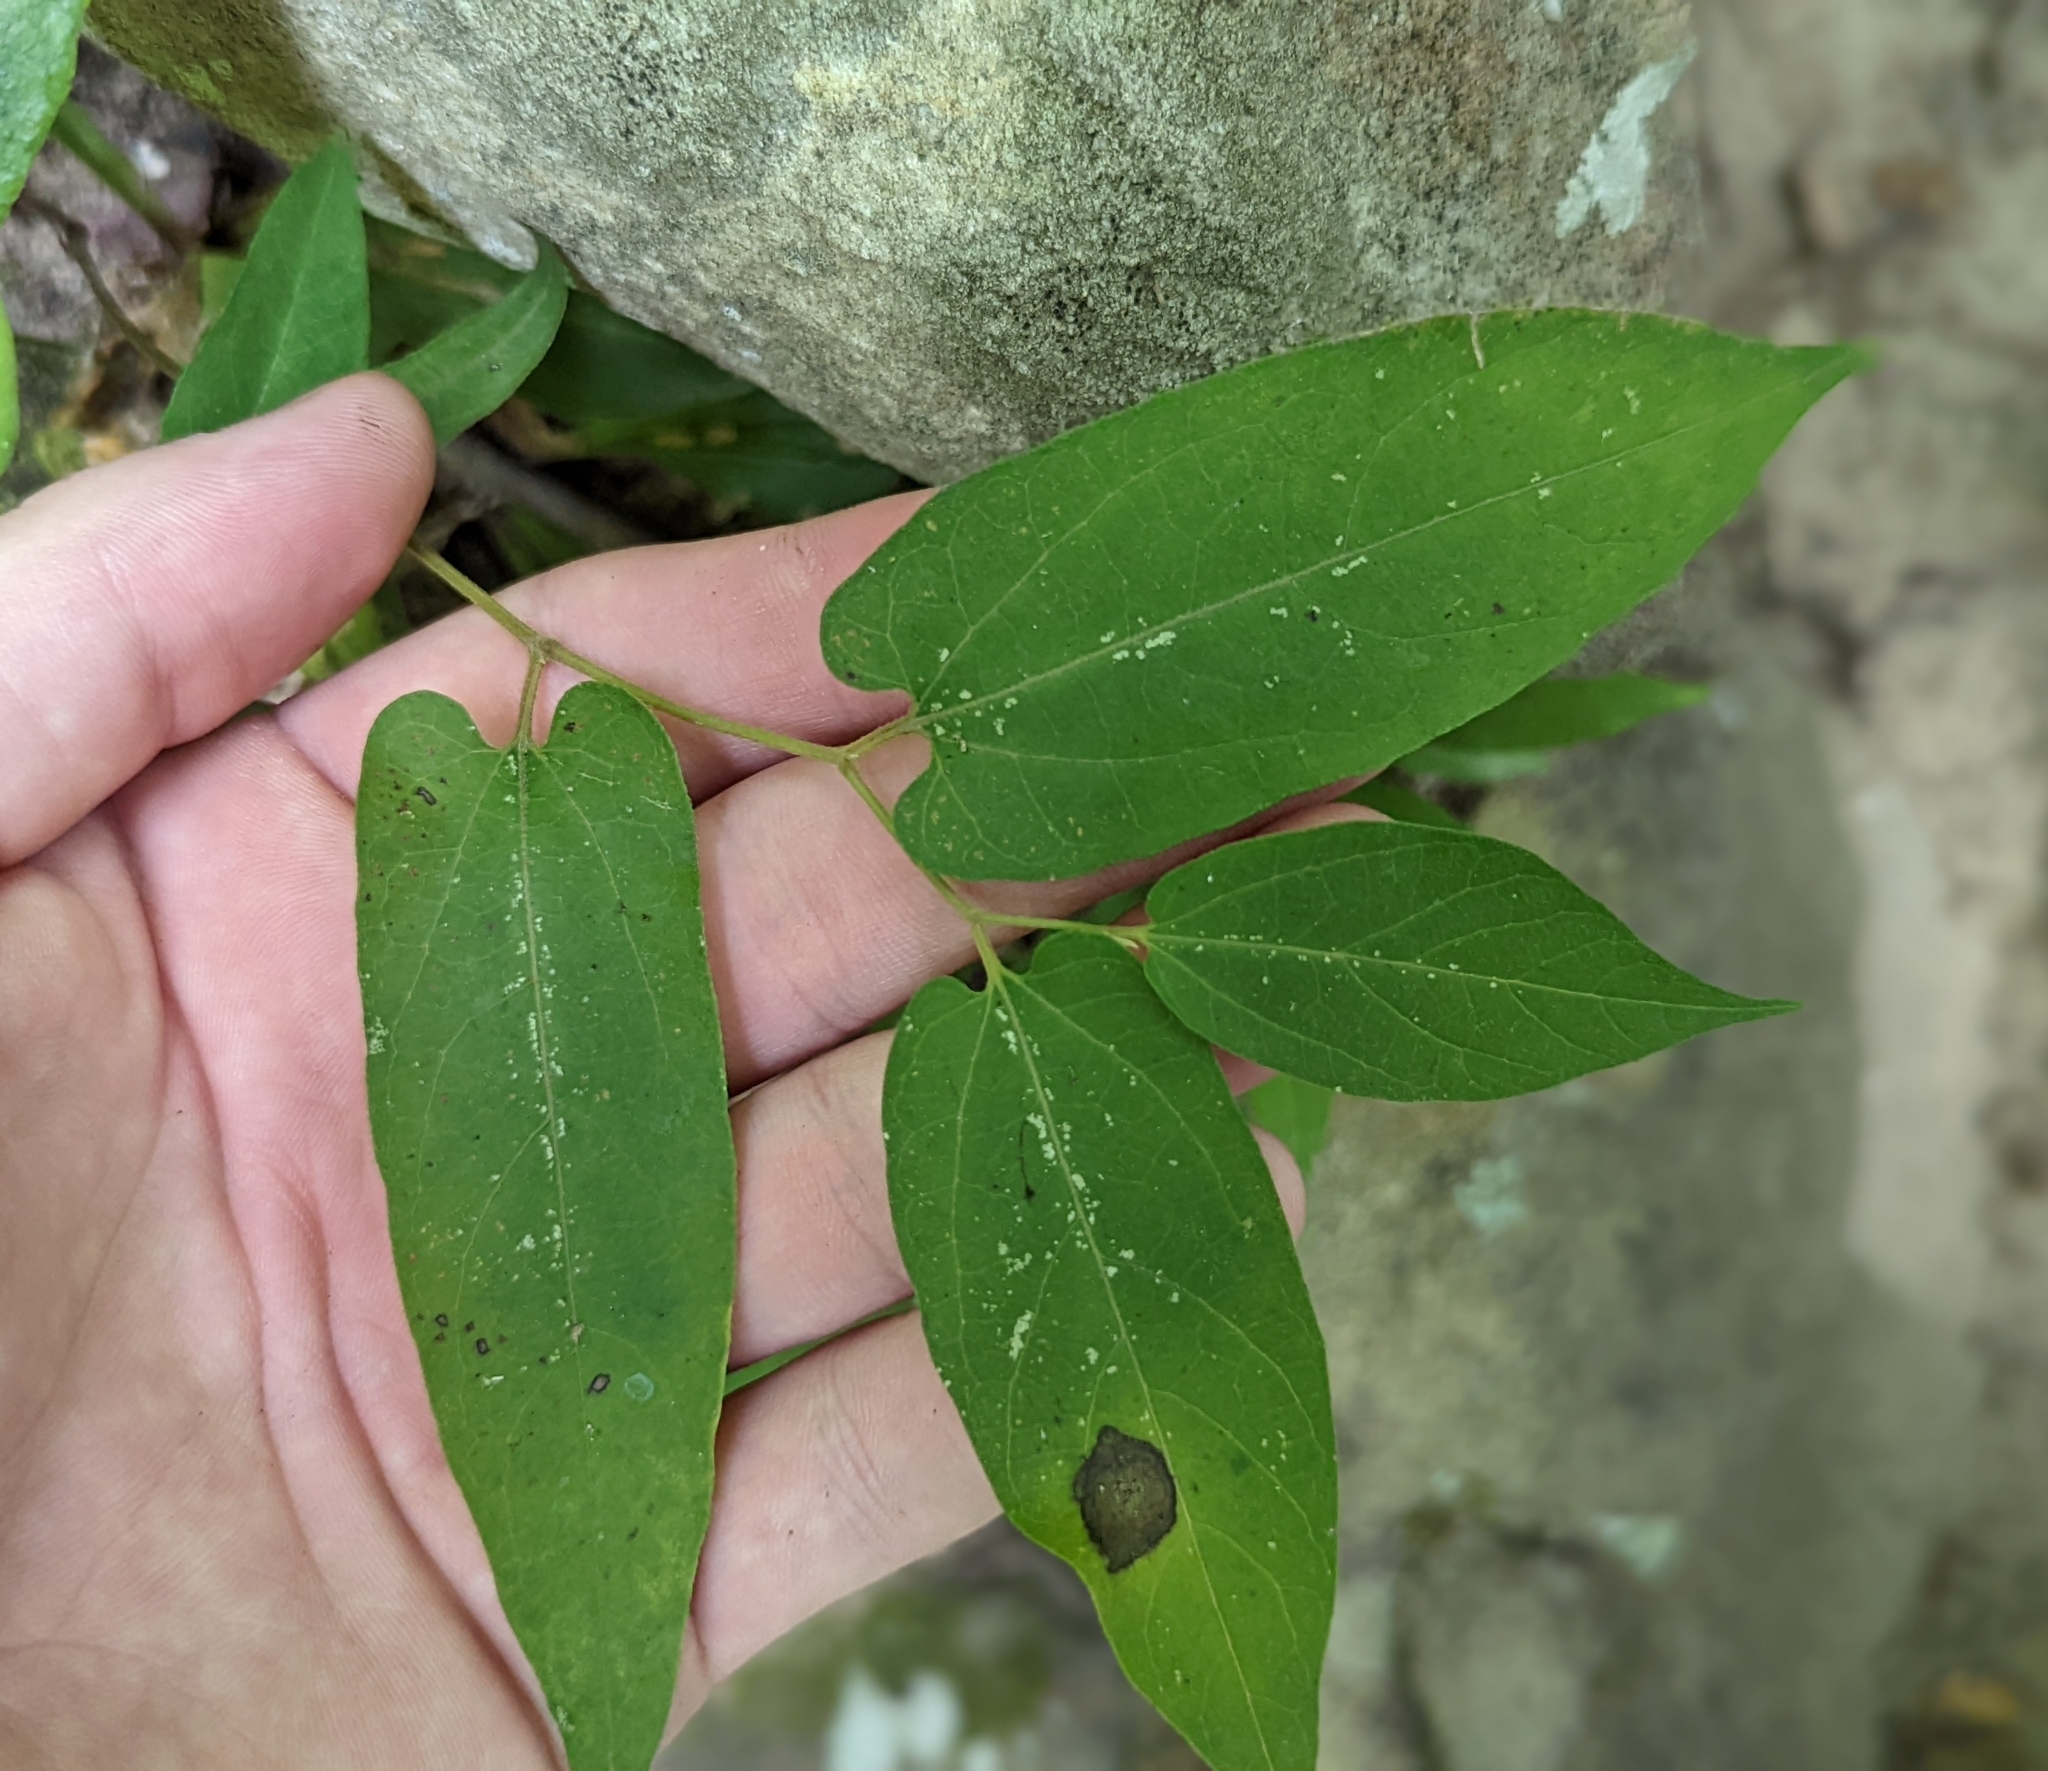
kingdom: Plantae
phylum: Tracheophyta
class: Magnoliopsida
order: Piperales
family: Aristolochiaceae
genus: Endodeca
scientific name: Endodeca serpentaria
